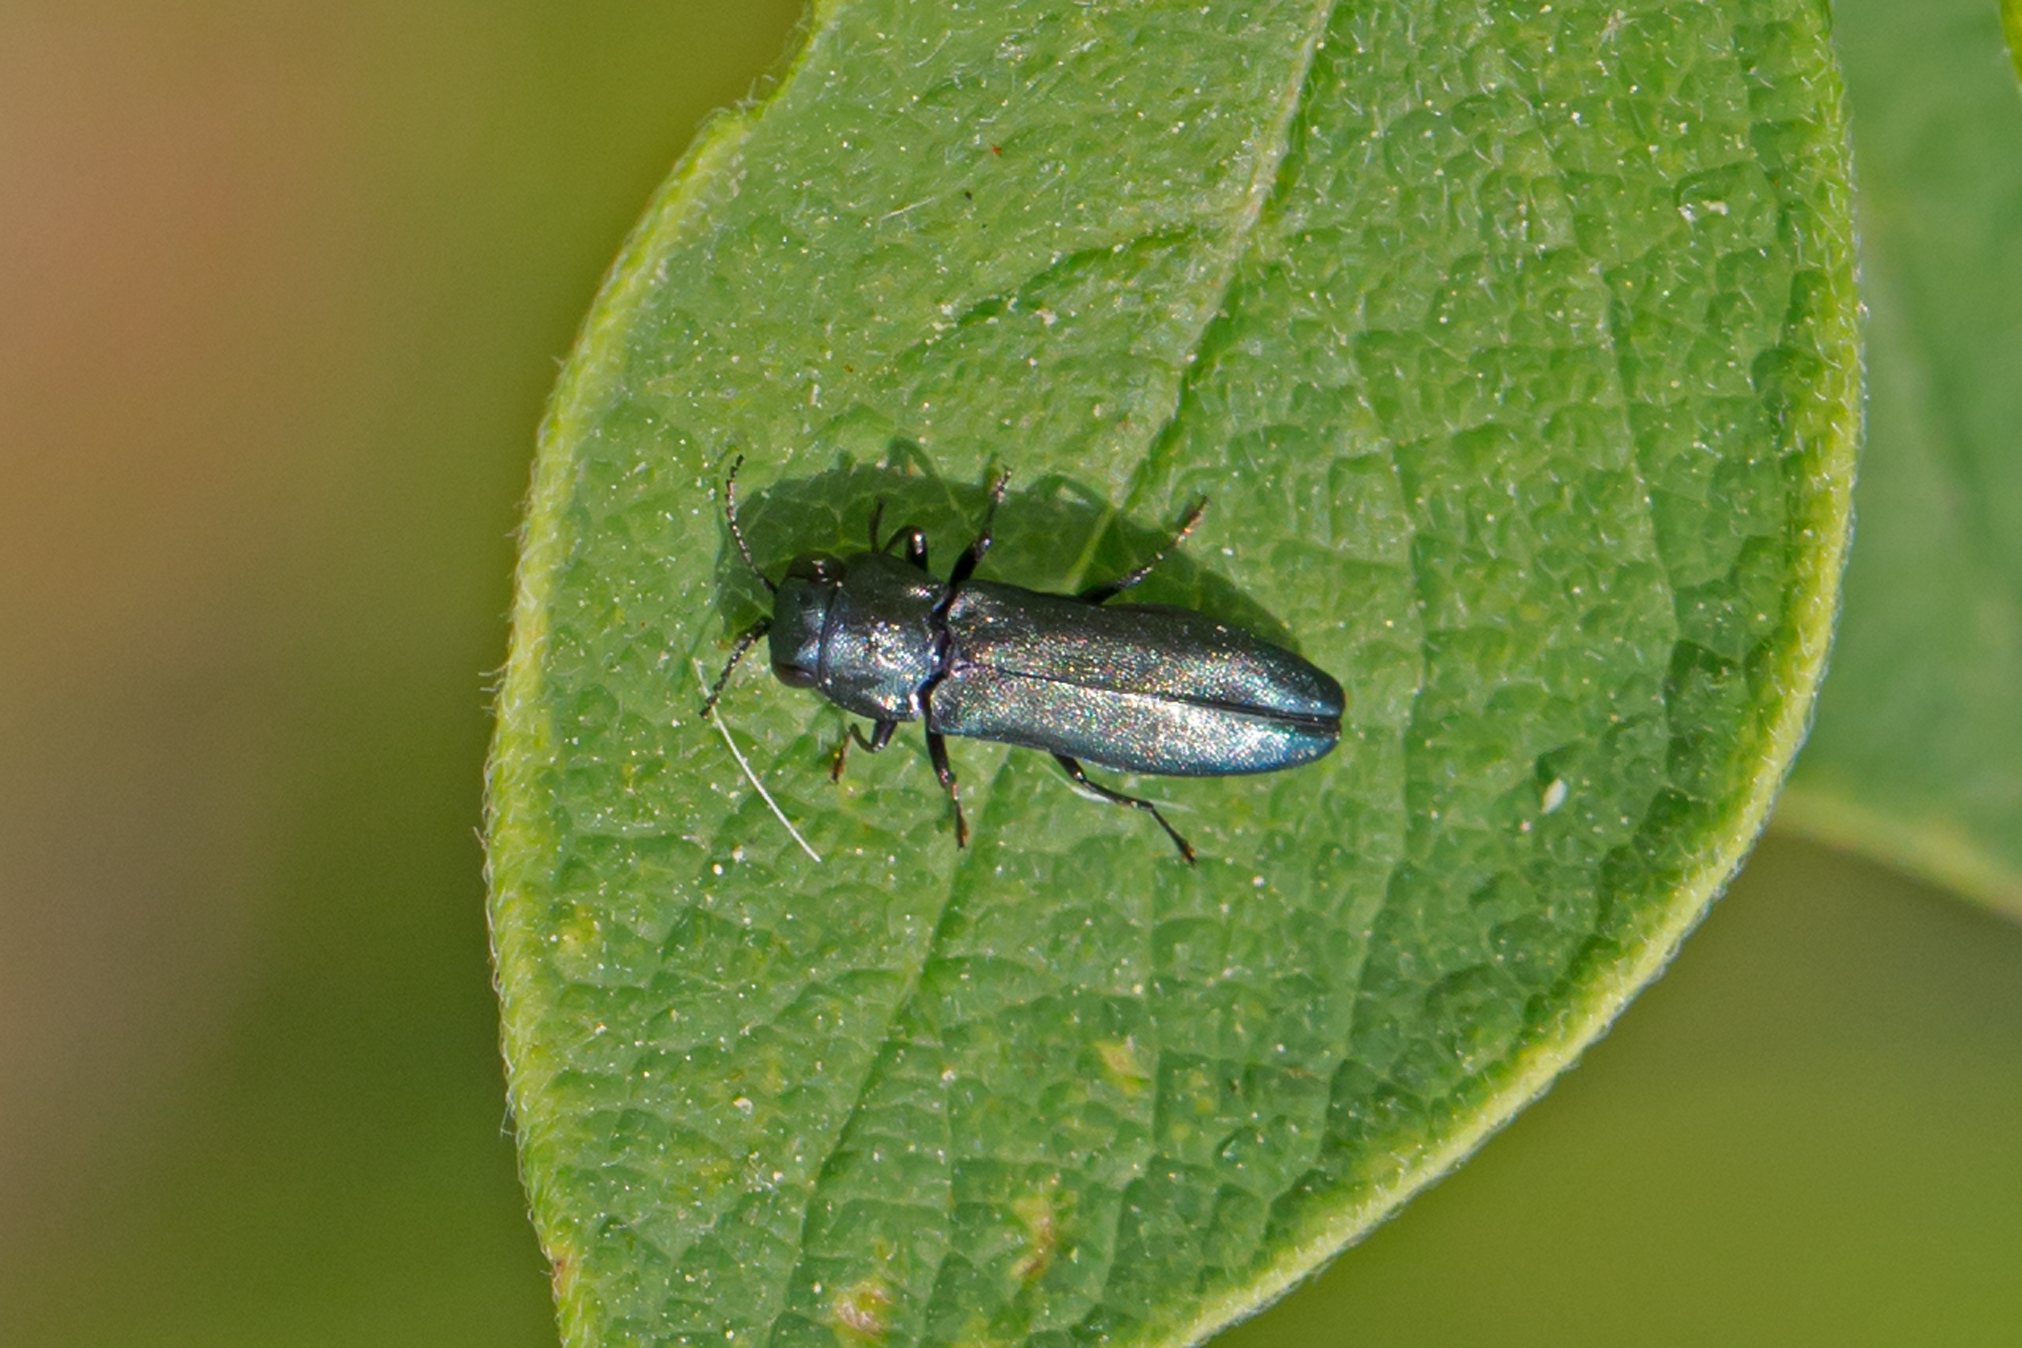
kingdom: Animalia
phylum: Arthropoda
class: Insecta
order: Coleoptera
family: Buprestidae
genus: Agrilus
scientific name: Agrilus cyanescens
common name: Bluish borer beetle
